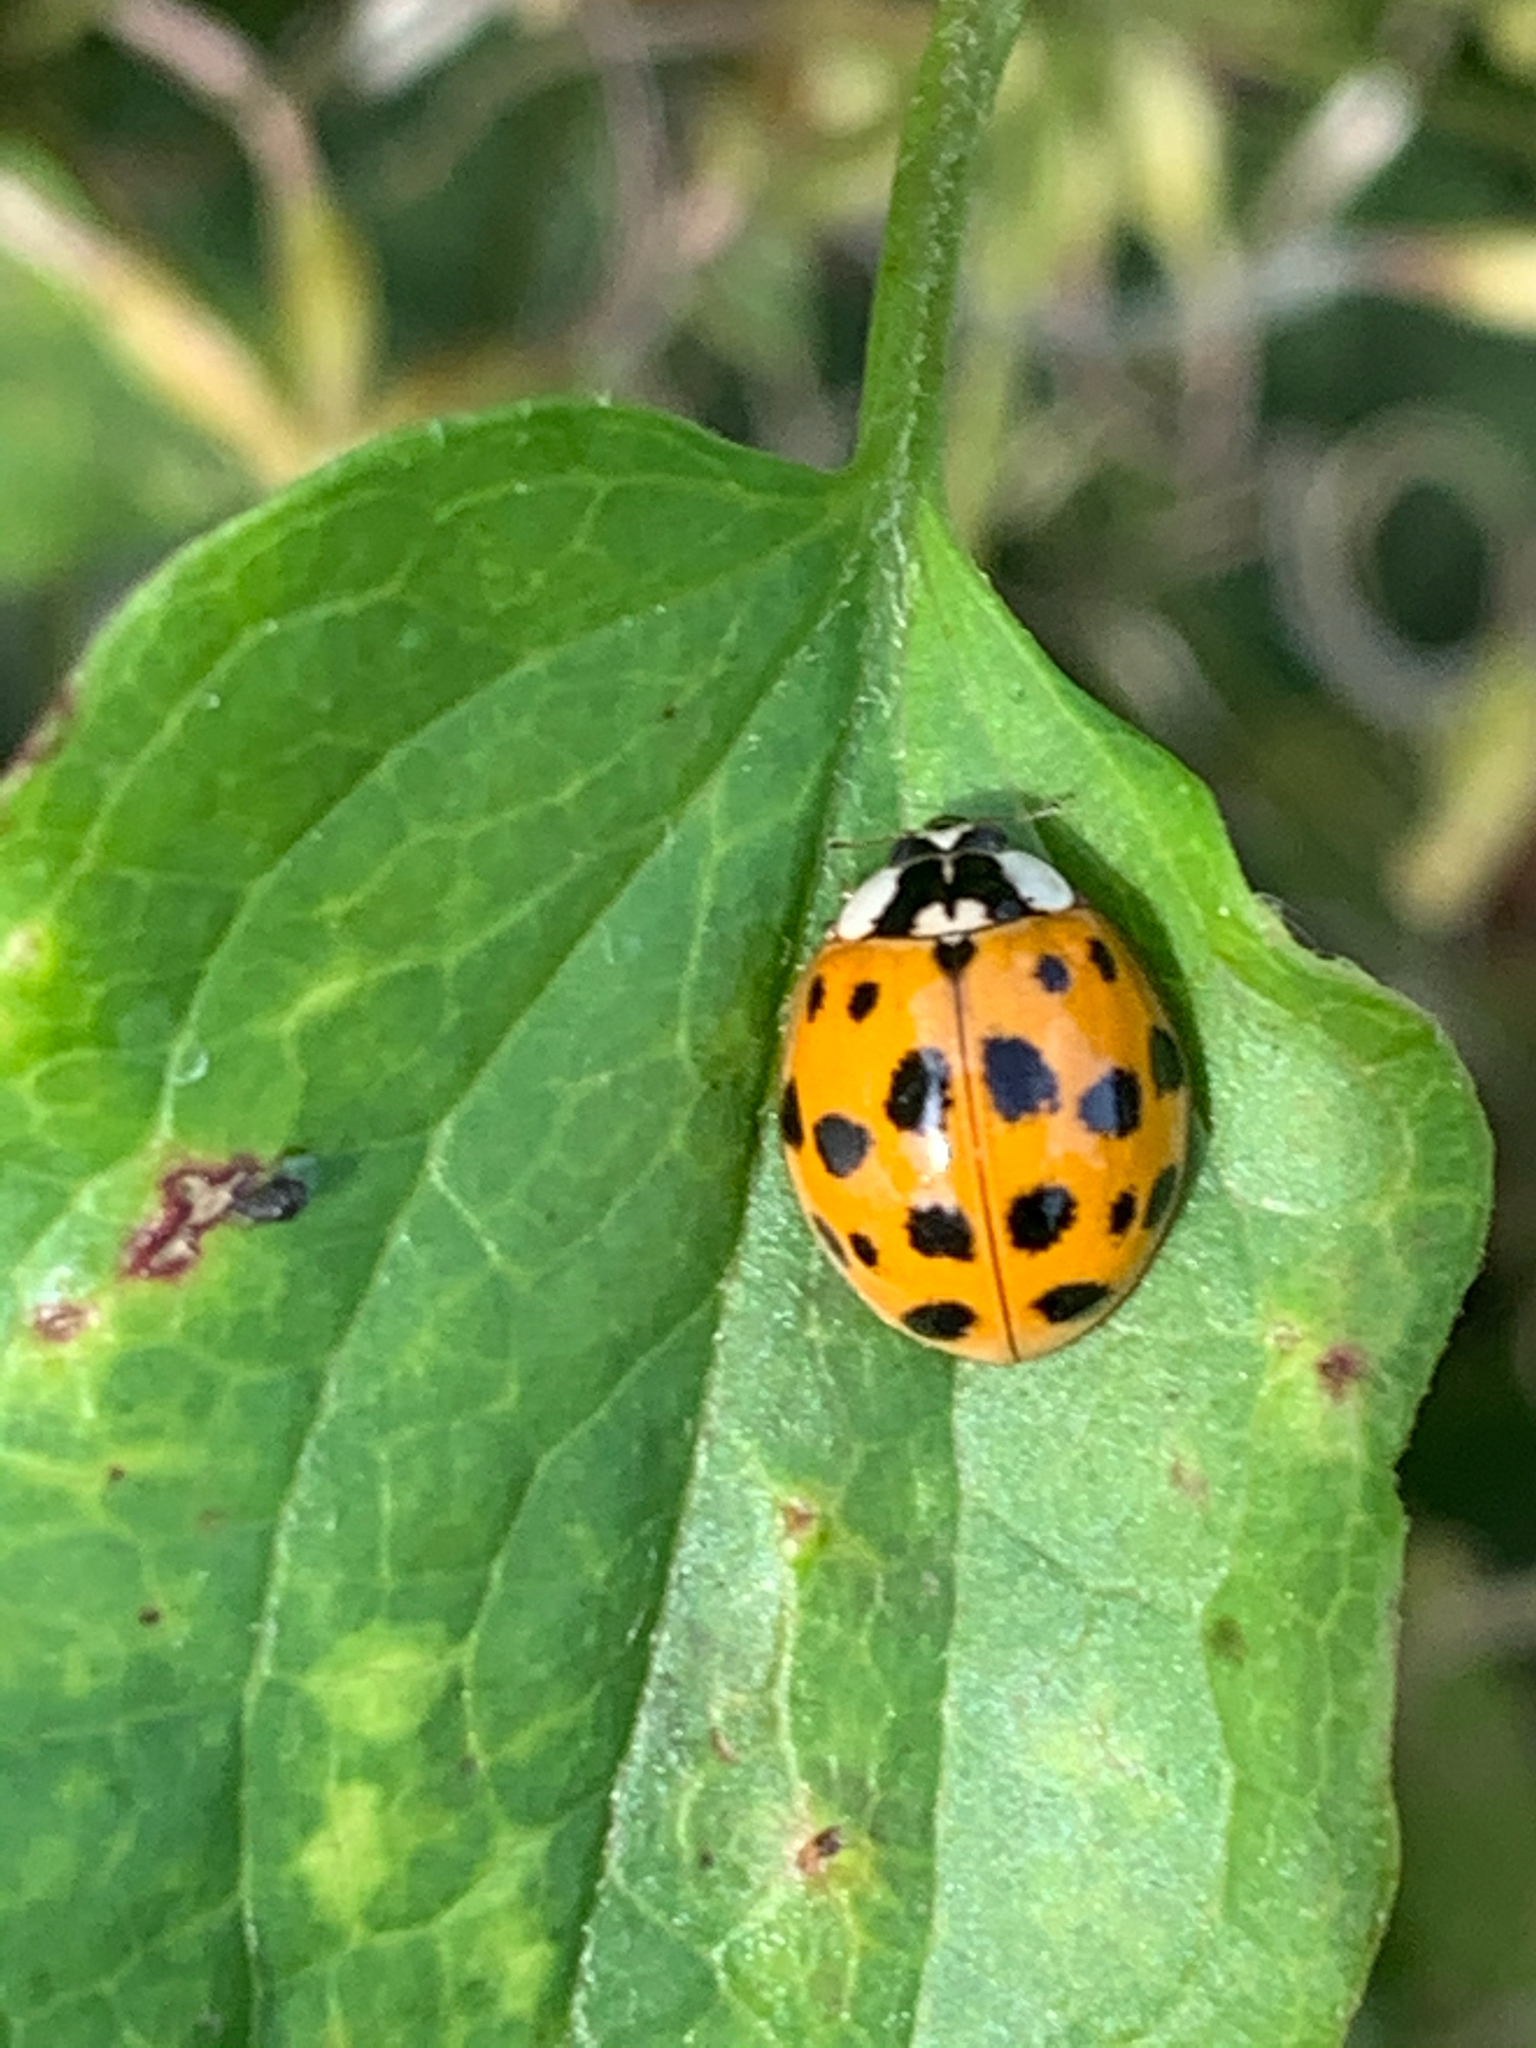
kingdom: Animalia
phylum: Arthropoda
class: Insecta
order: Coleoptera
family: Coccinellidae
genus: Harmonia
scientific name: Harmonia axyridis
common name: Harlequin ladybird
